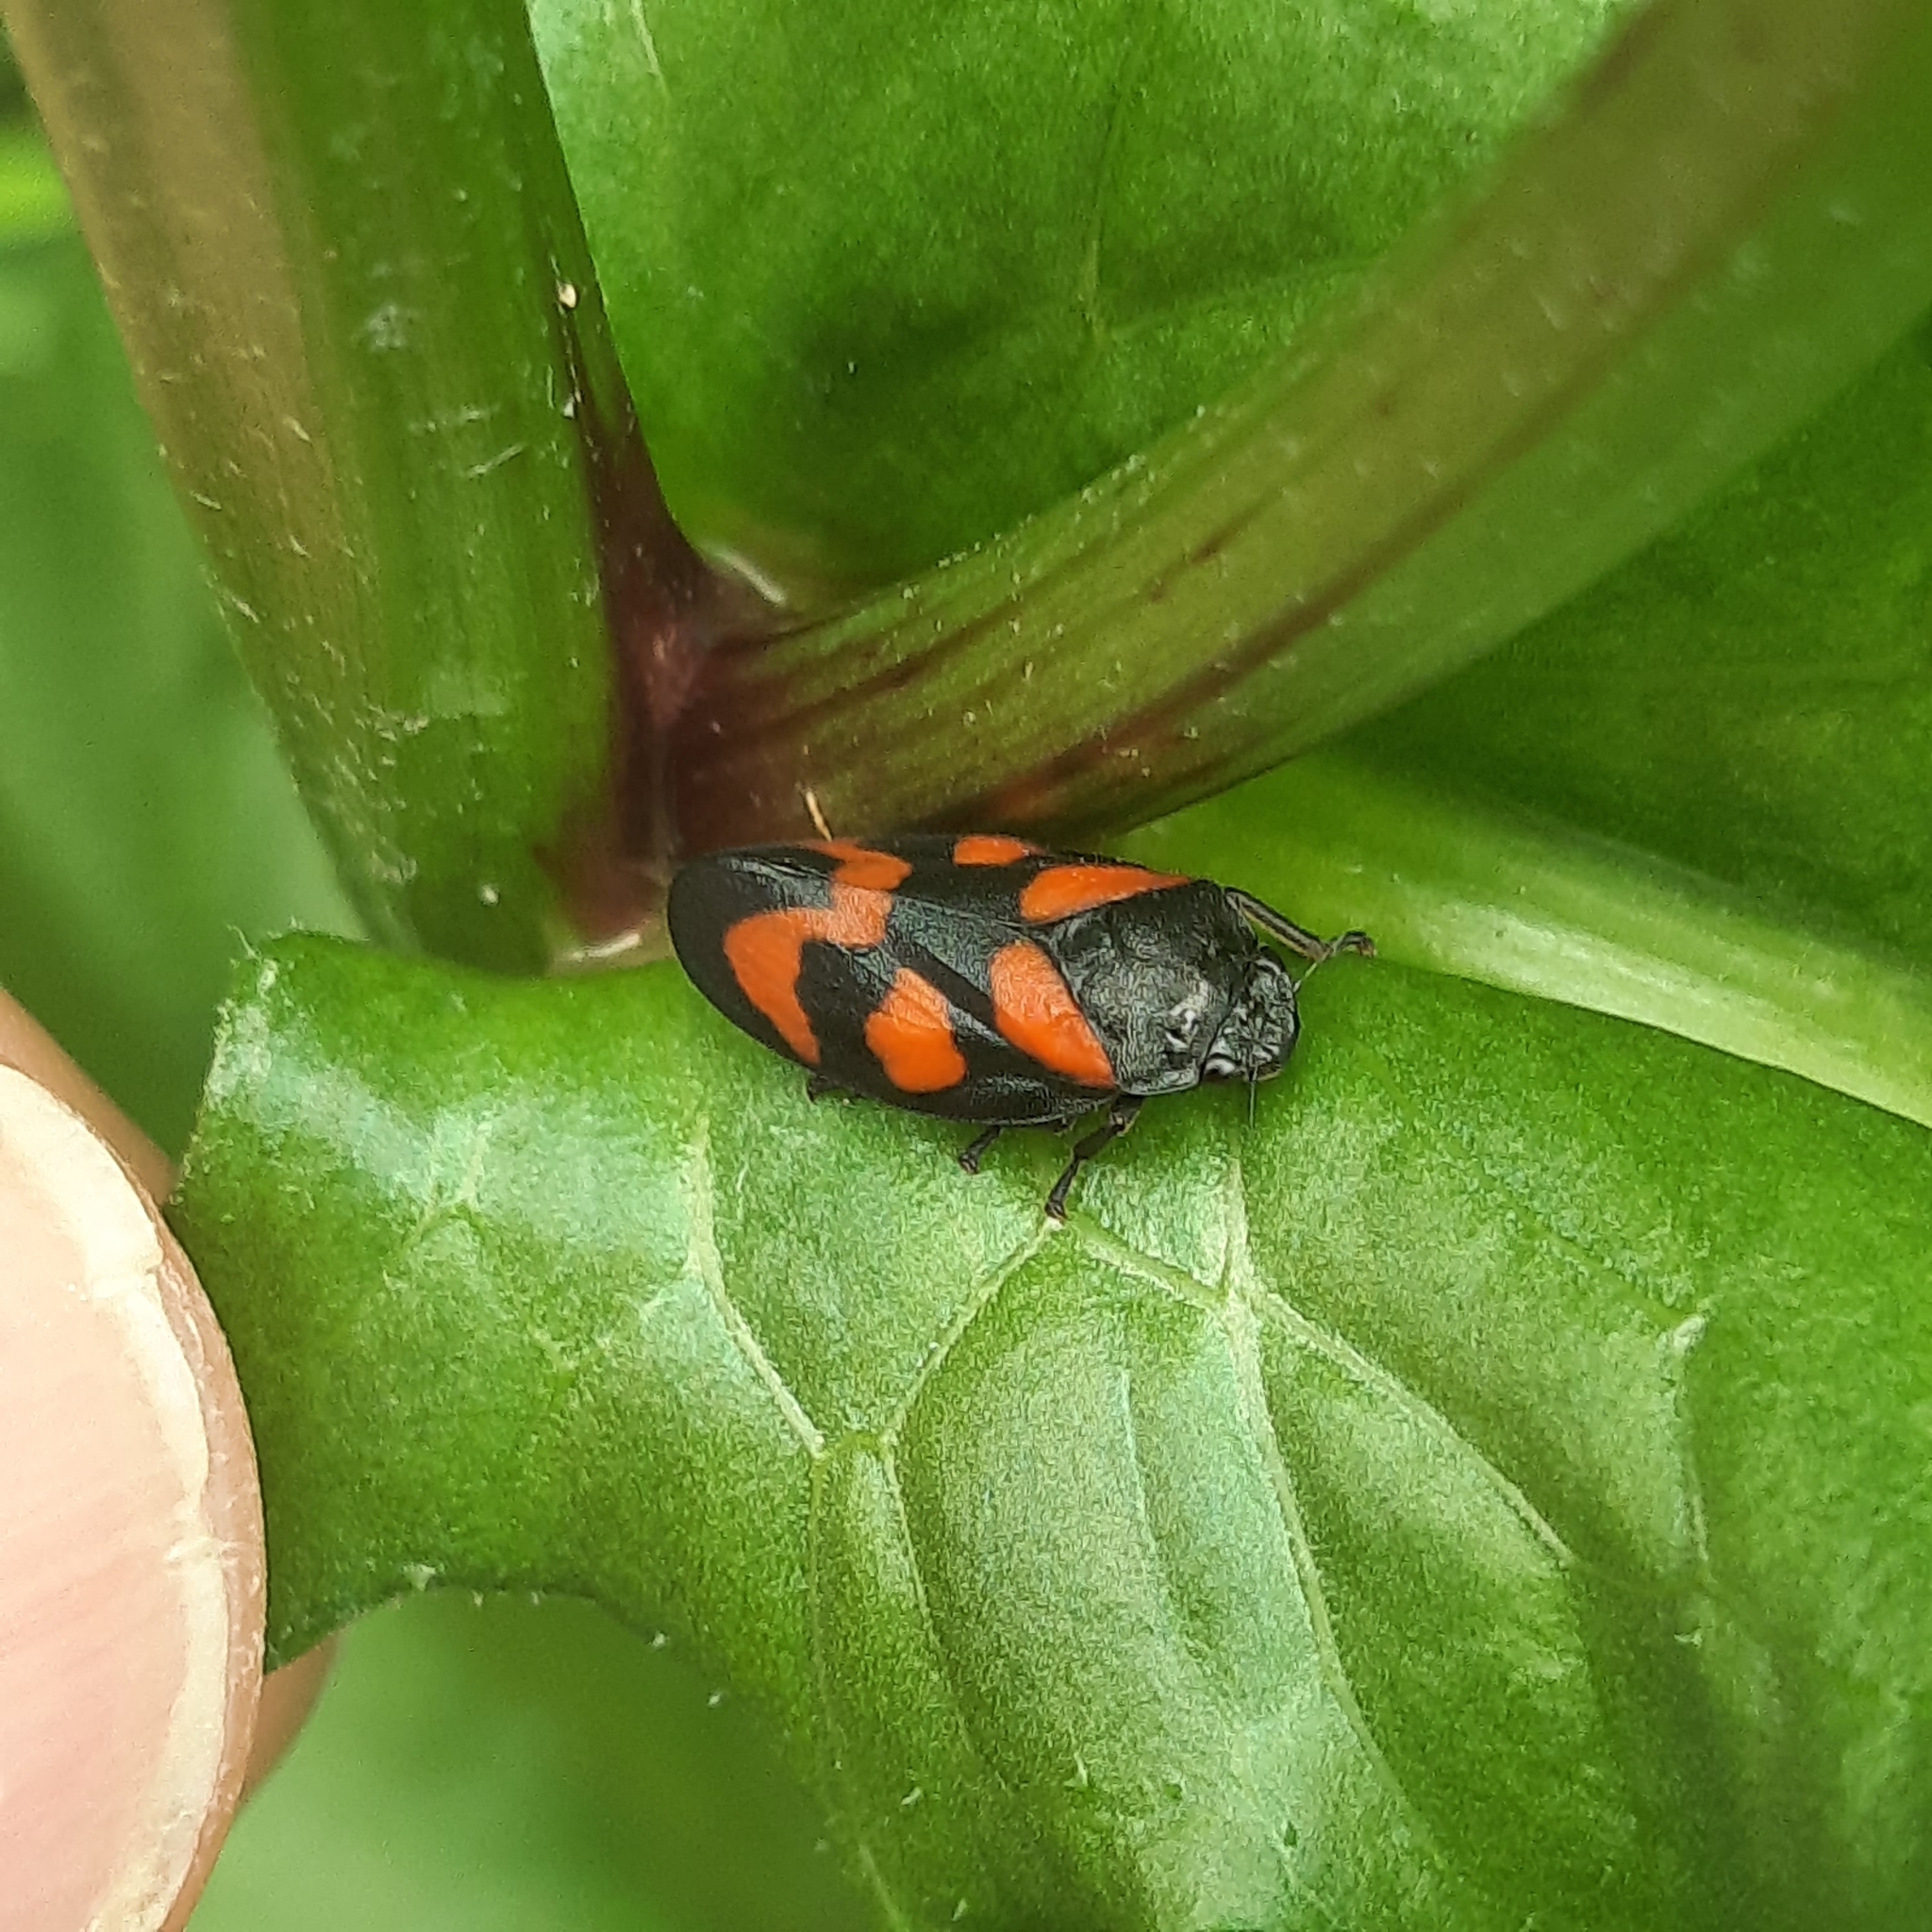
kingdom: Animalia
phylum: Arthropoda
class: Insecta
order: Hemiptera
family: Cercopidae
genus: Cercopis
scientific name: Cercopis vulnerata
